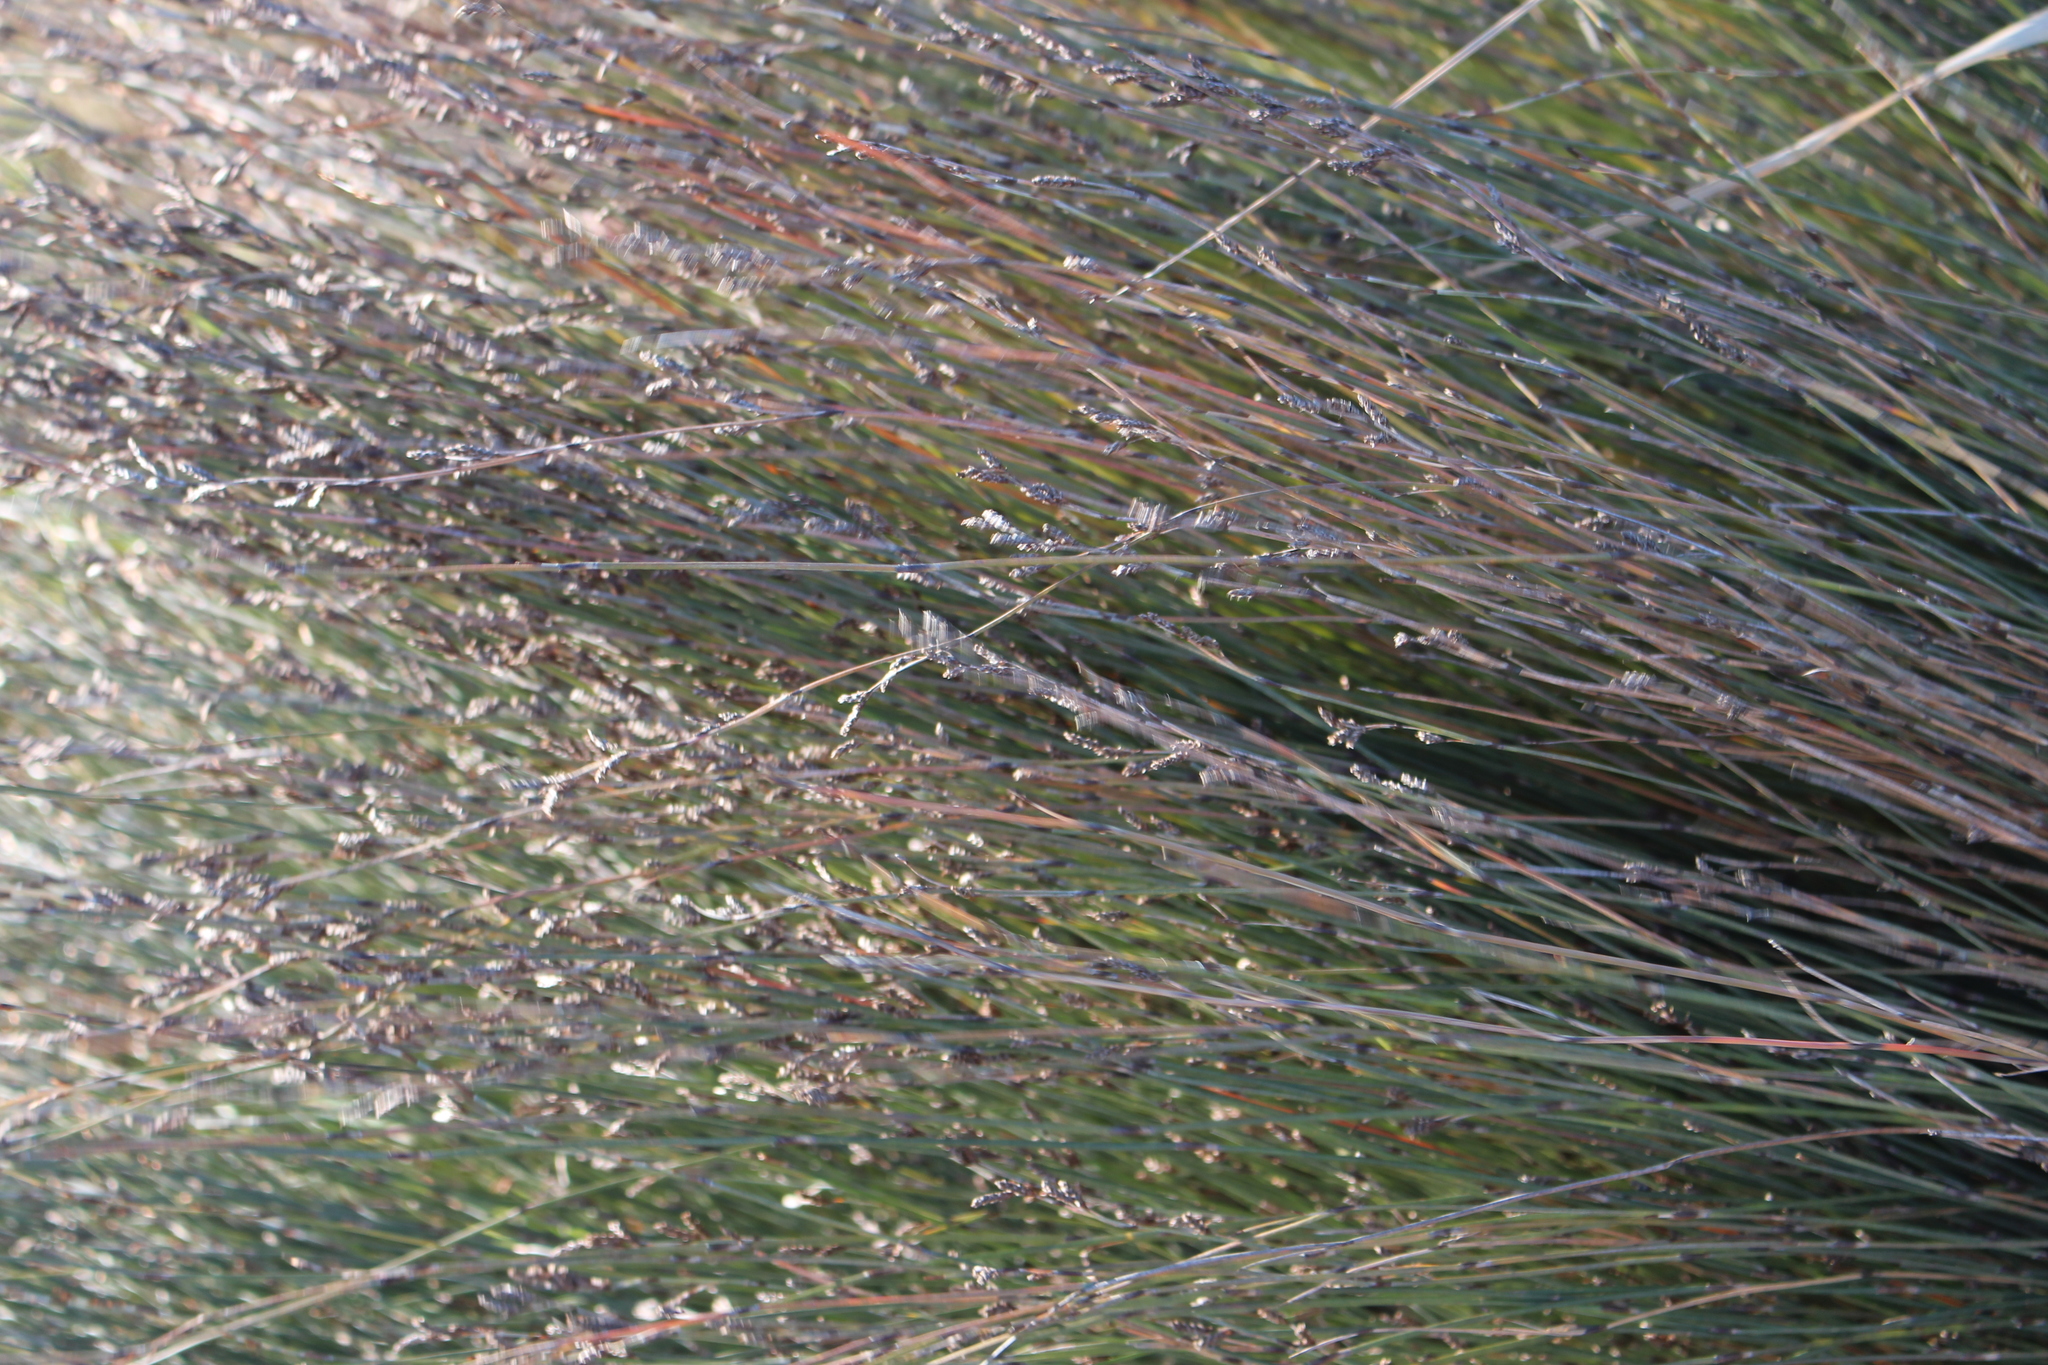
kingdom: Plantae
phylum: Tracheophyta
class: Liliopsida
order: Poales
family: Restionaceae
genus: Apodasmia
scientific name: Apodasmia similis
